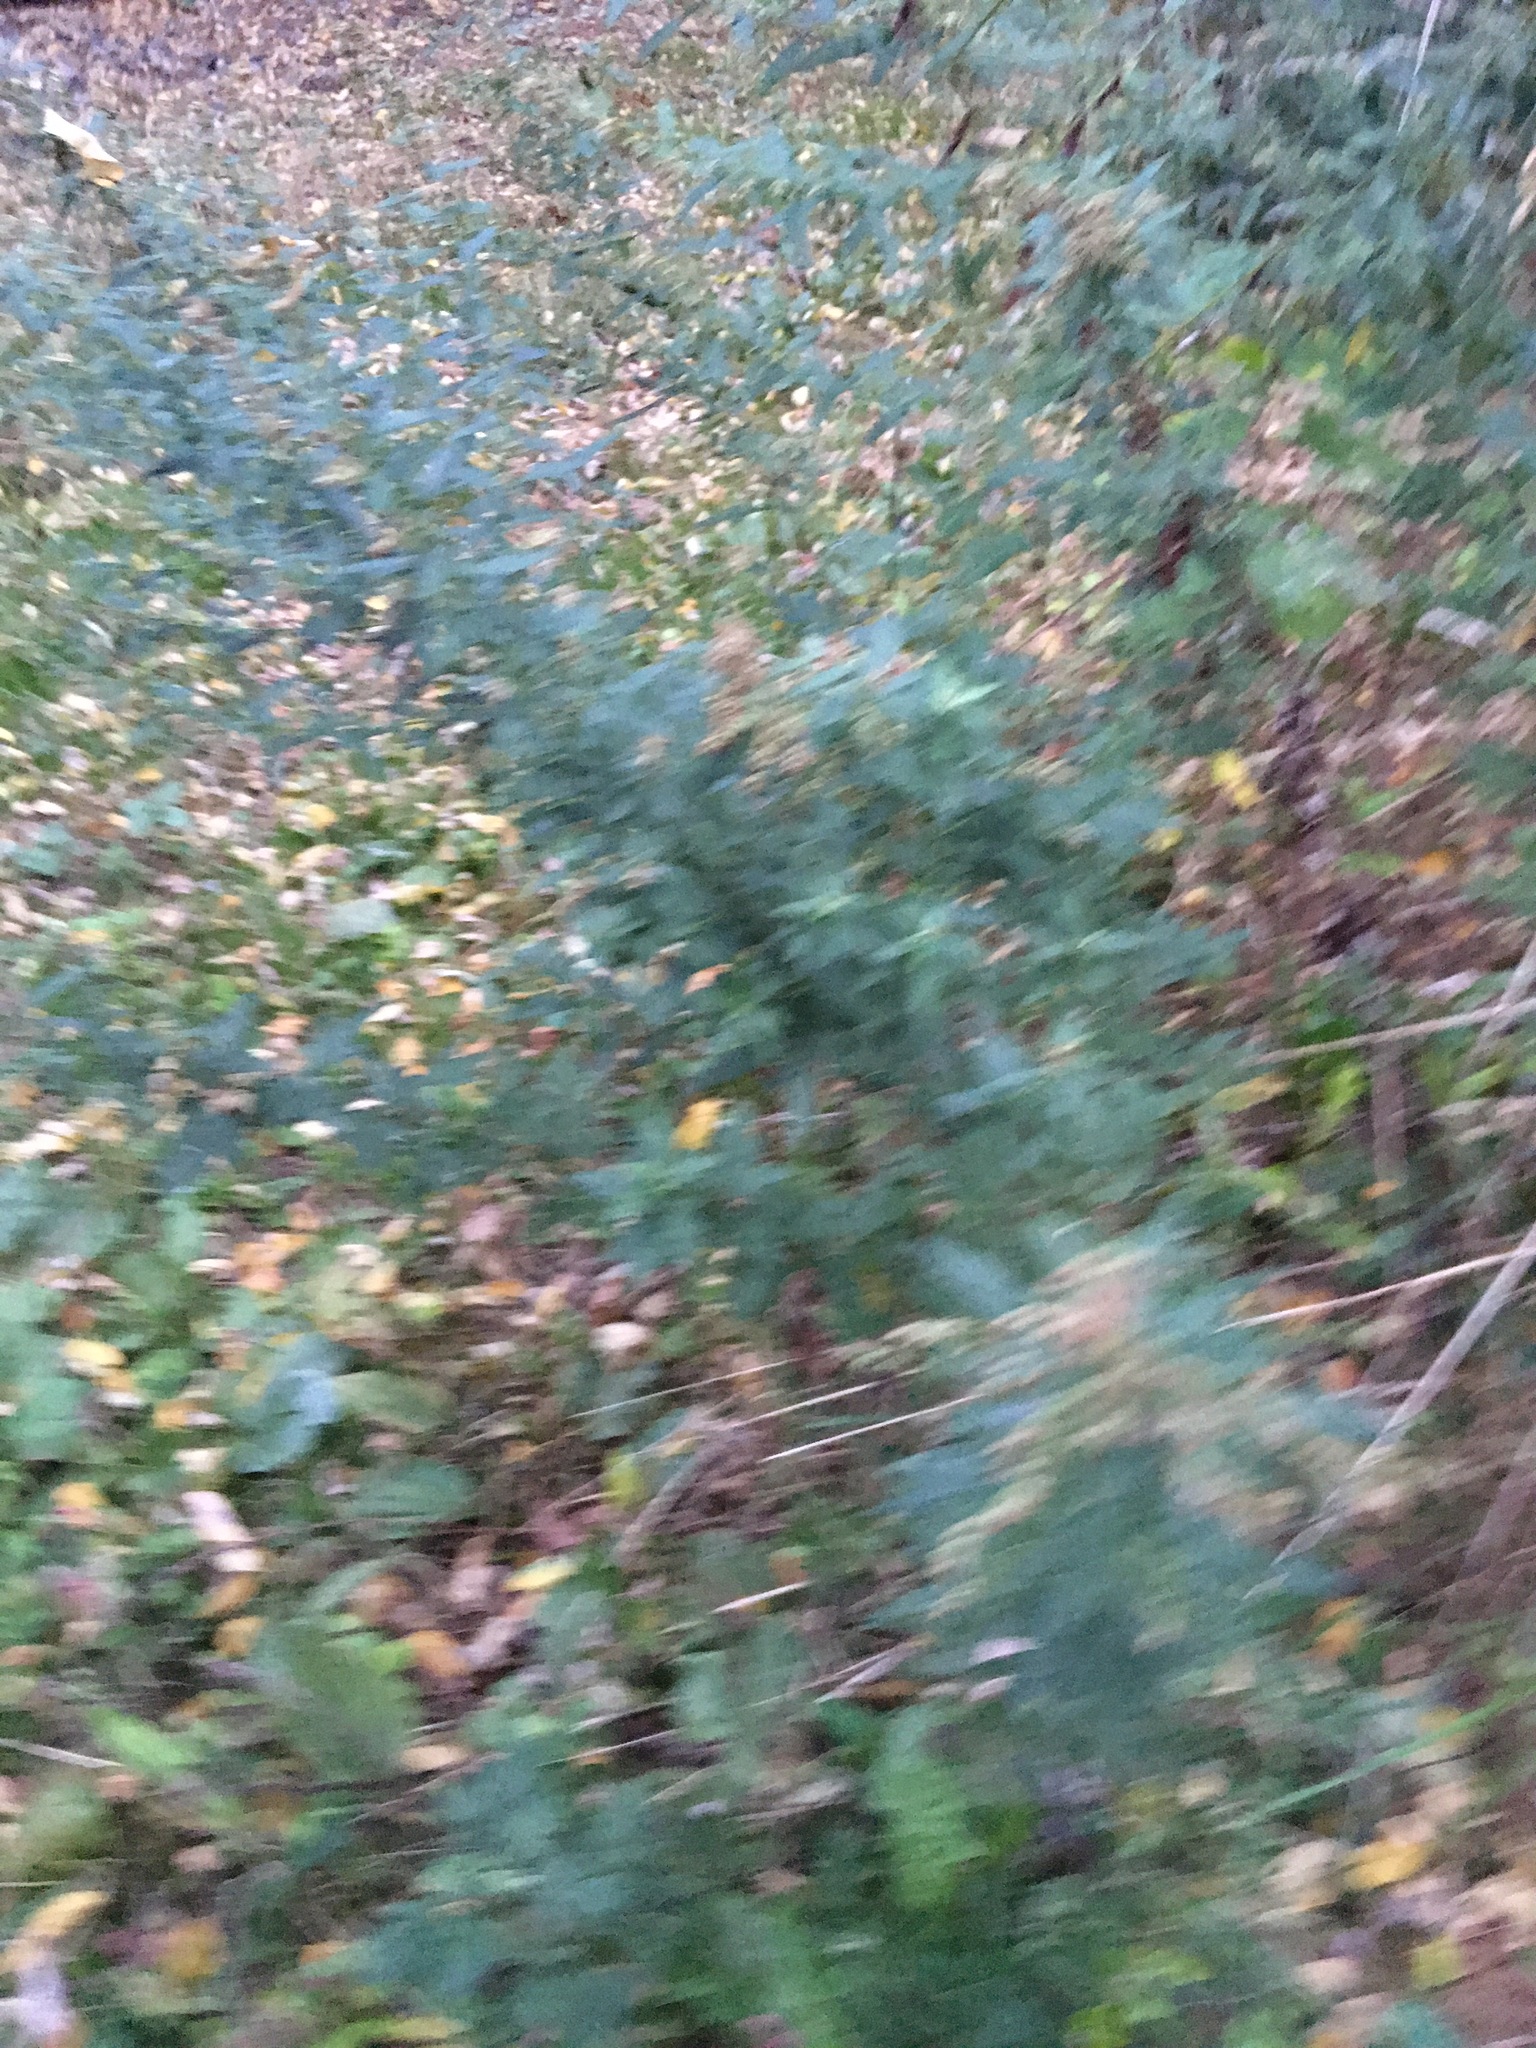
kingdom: Plantae
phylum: Tracheophyta
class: Magnoliopsida
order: Asterales
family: Asteraceae
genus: Artemisia
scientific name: Artemisia vulgaris
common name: Mugwort
